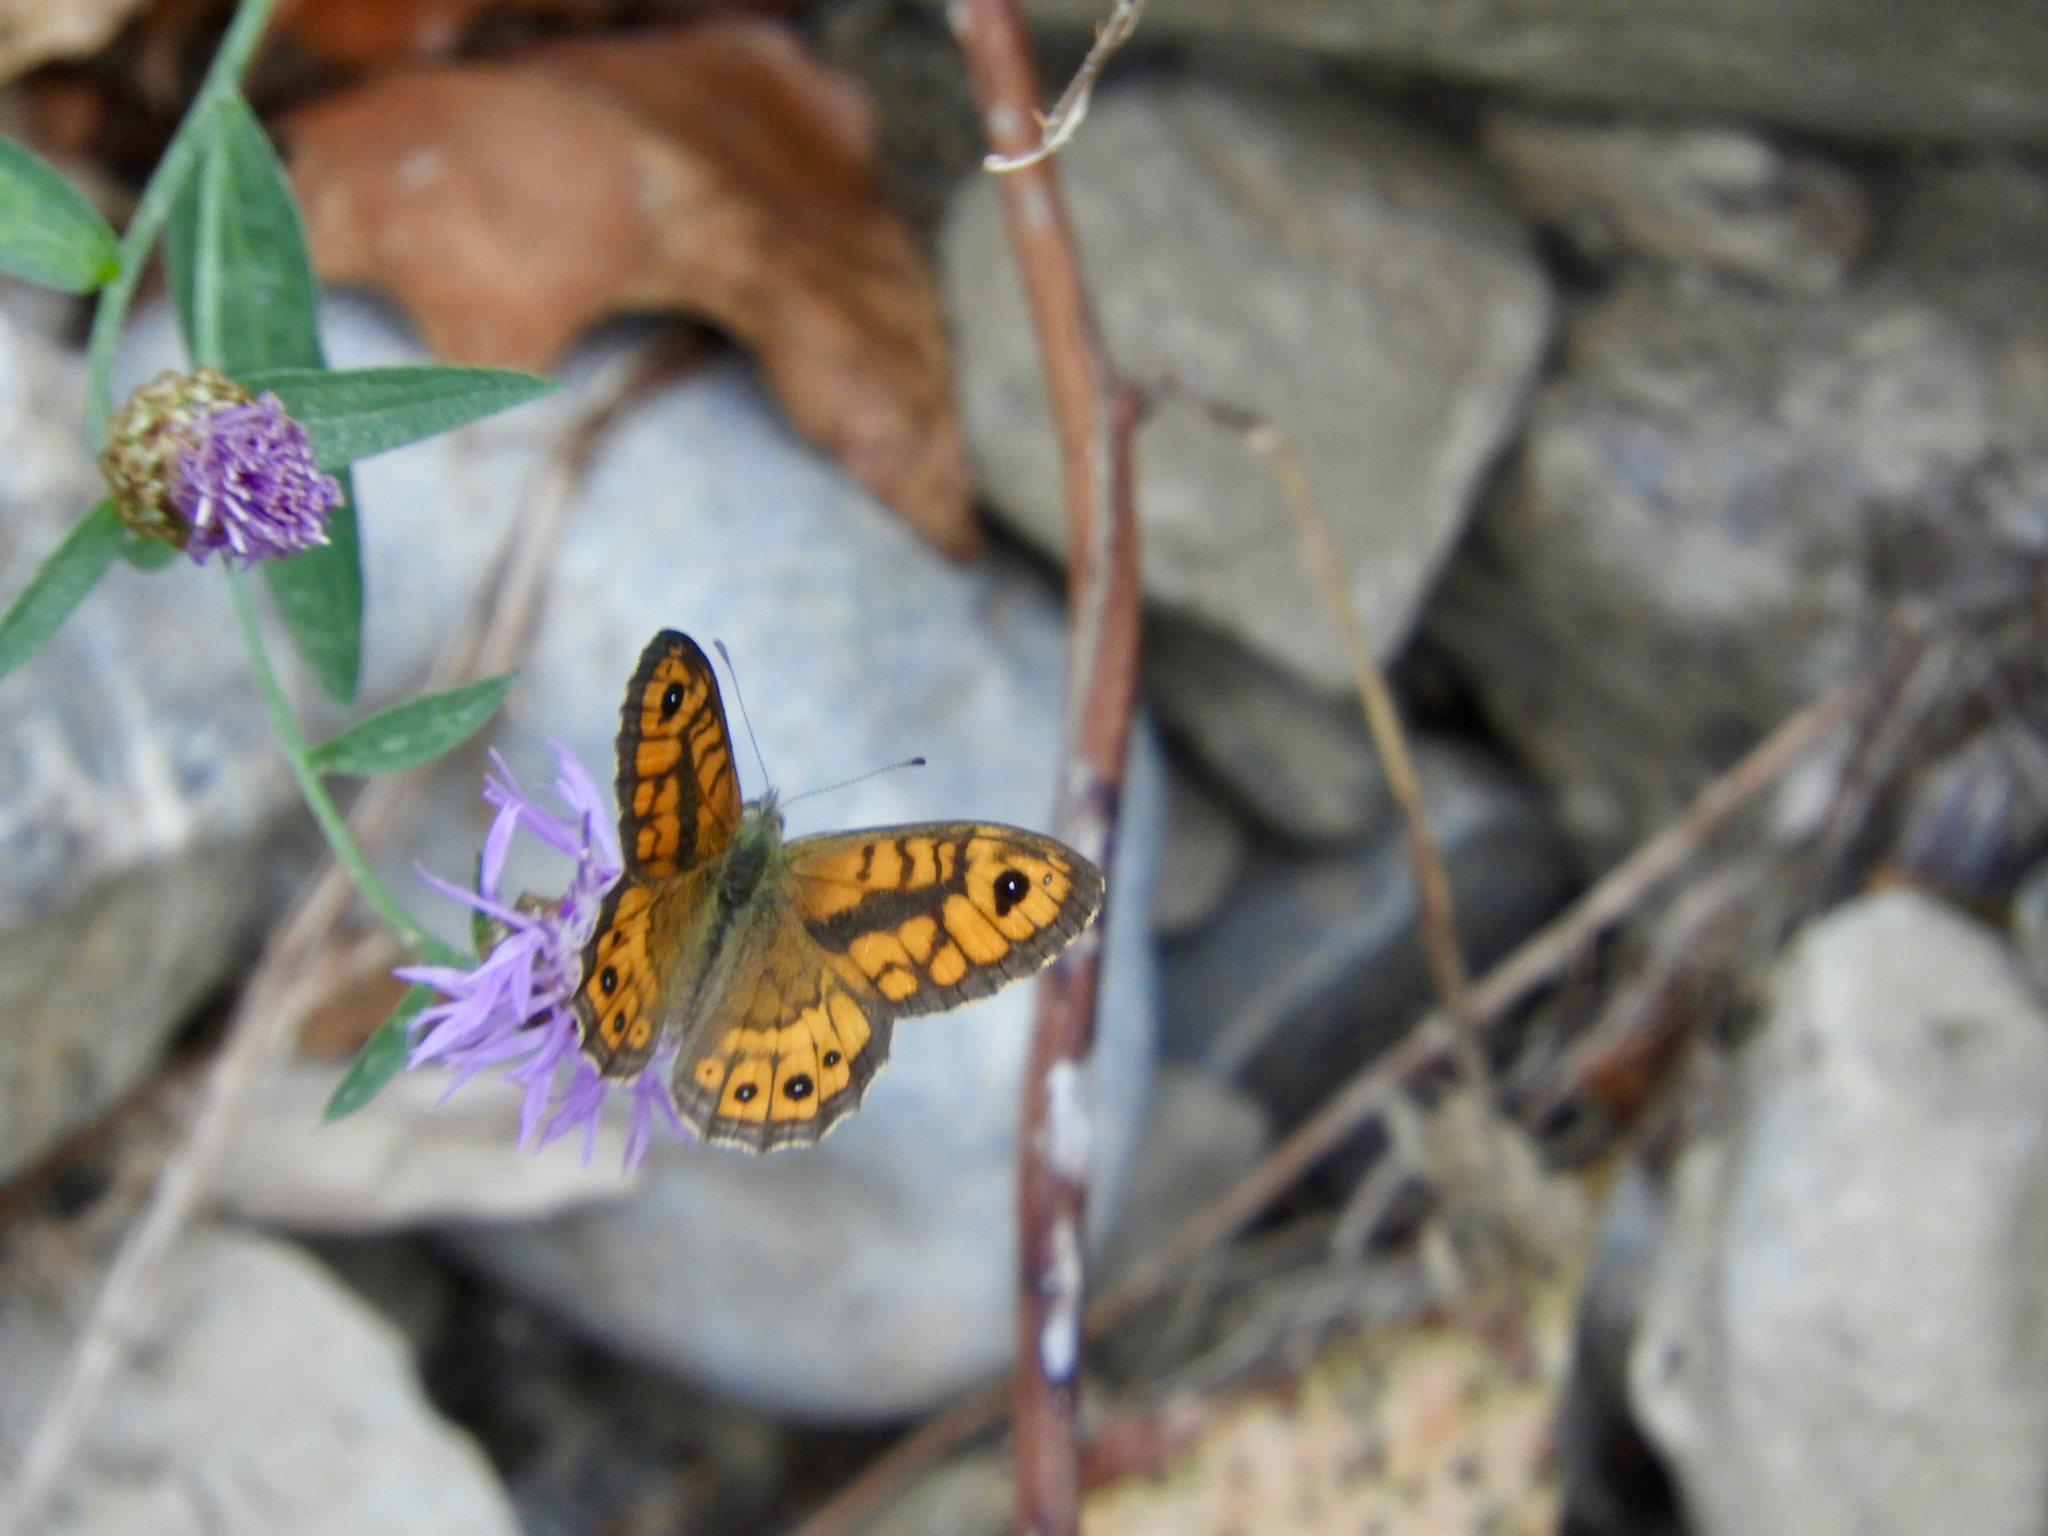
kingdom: Animalia
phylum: Arthropoda
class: Insecta
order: Lepidoptera
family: Nymphalidae
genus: Pararge
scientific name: Pararge Lasiommata megera
